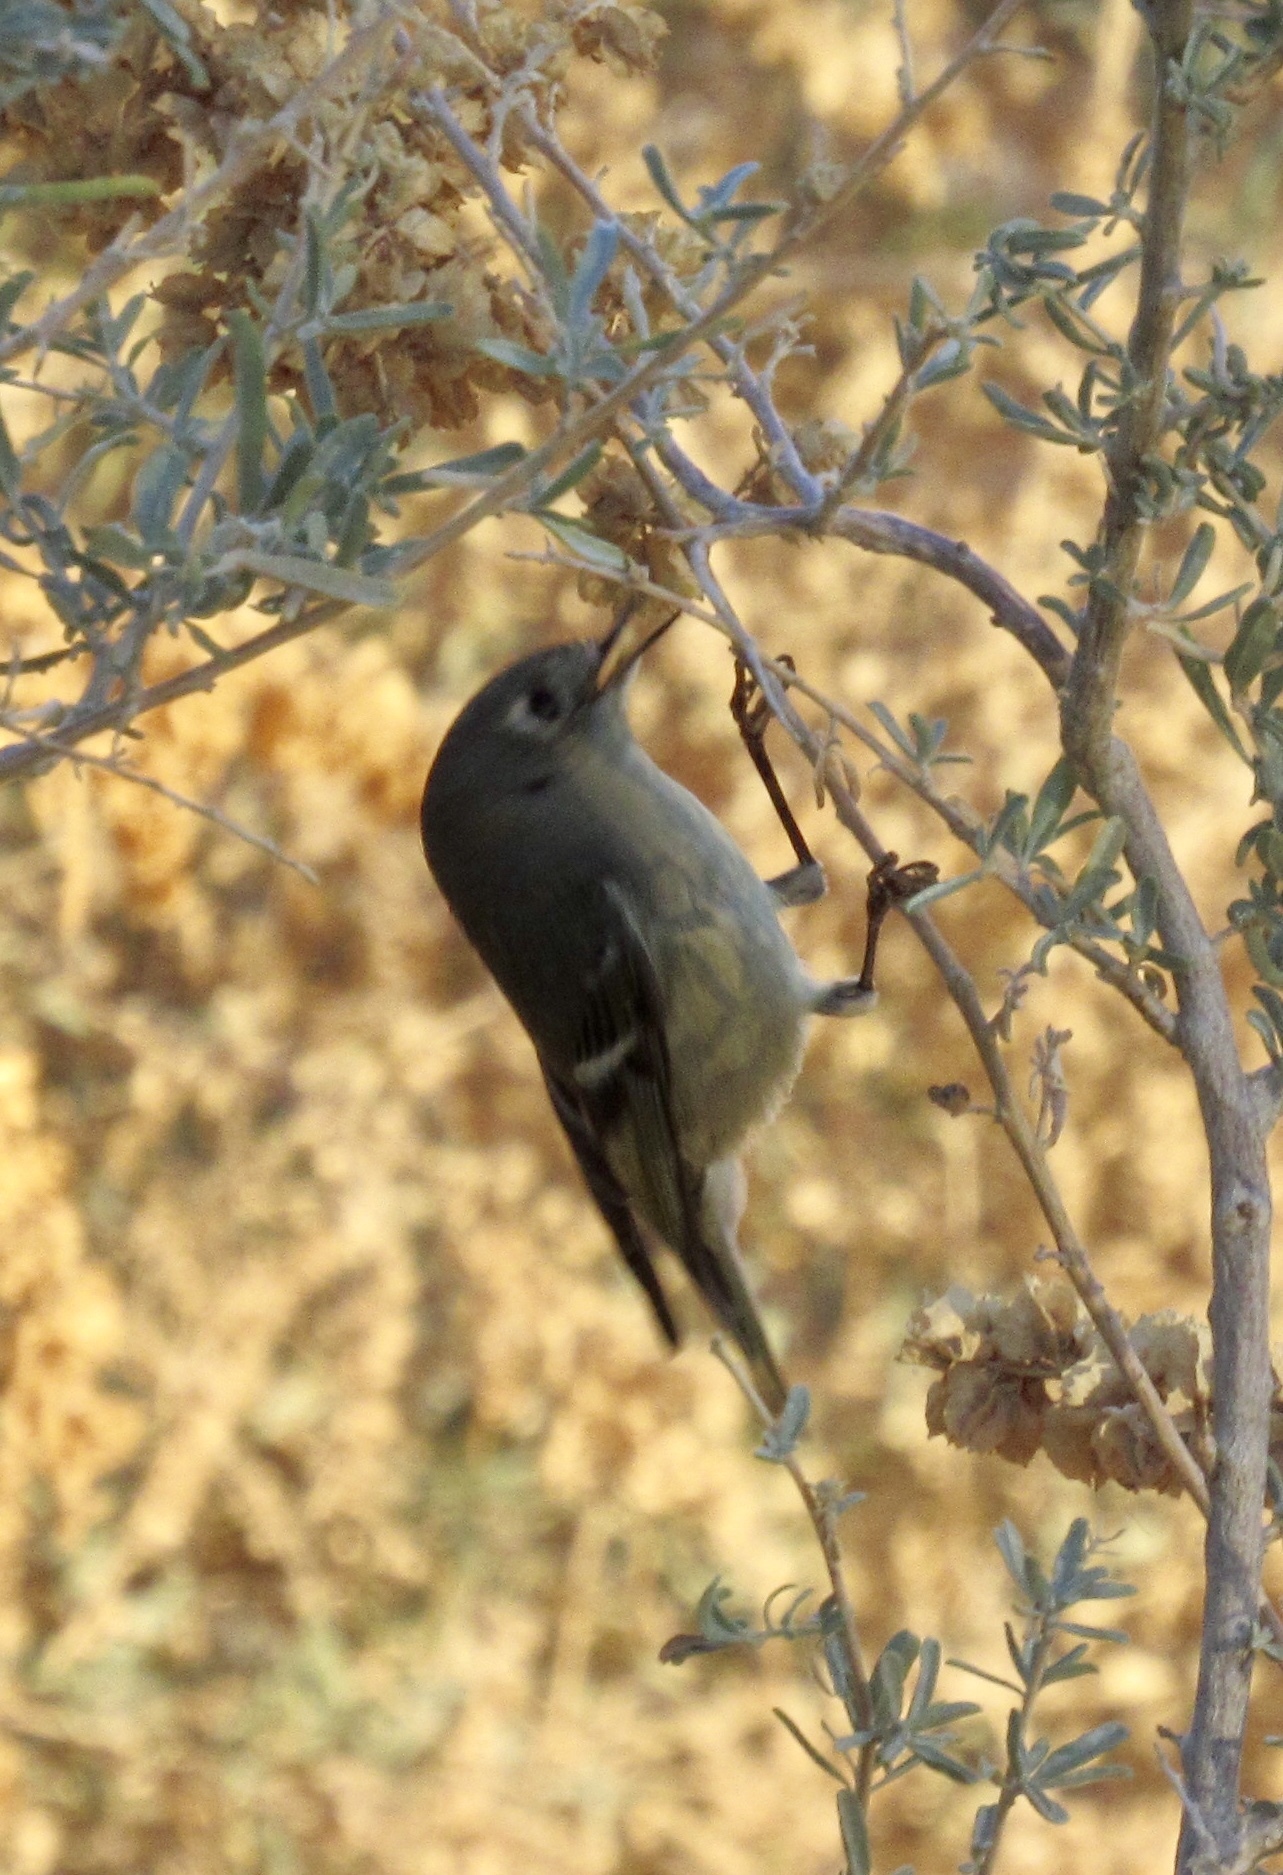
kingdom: Animalia
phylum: Chordata
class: Aves
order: Passeriformes
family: Regulidae
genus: Regulus
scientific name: Regulus calendula
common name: Ruby-crowned kinglet
